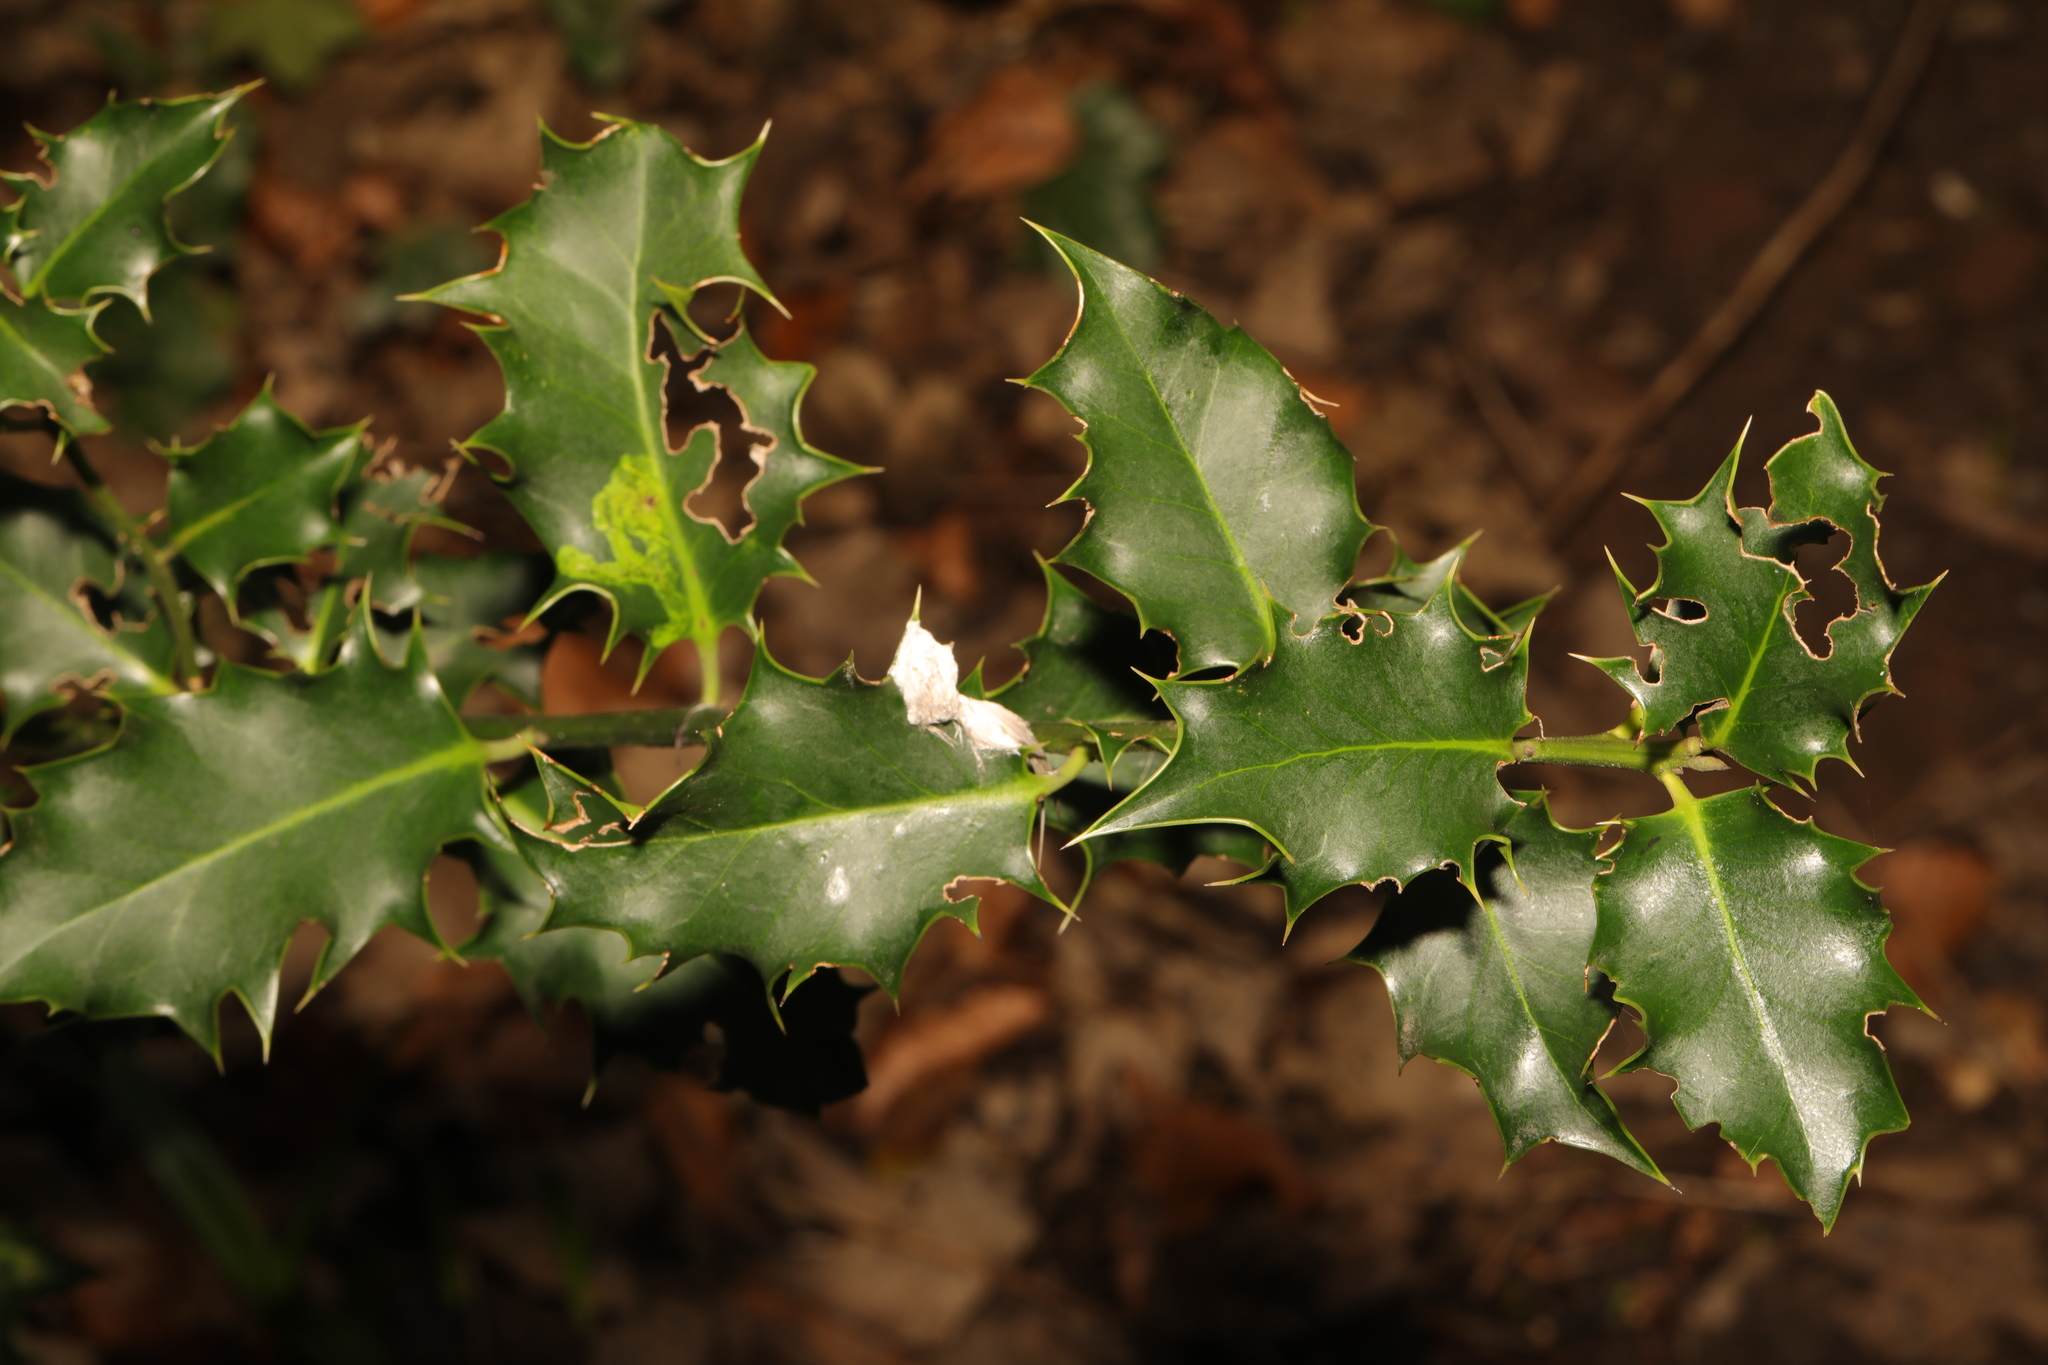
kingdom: Plantae
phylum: Tracheophyta
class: Magnoliopsida
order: Aquifoliales
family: Aquifoliaceae
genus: Ilex
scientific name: Ilex aquifolium
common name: English holly
